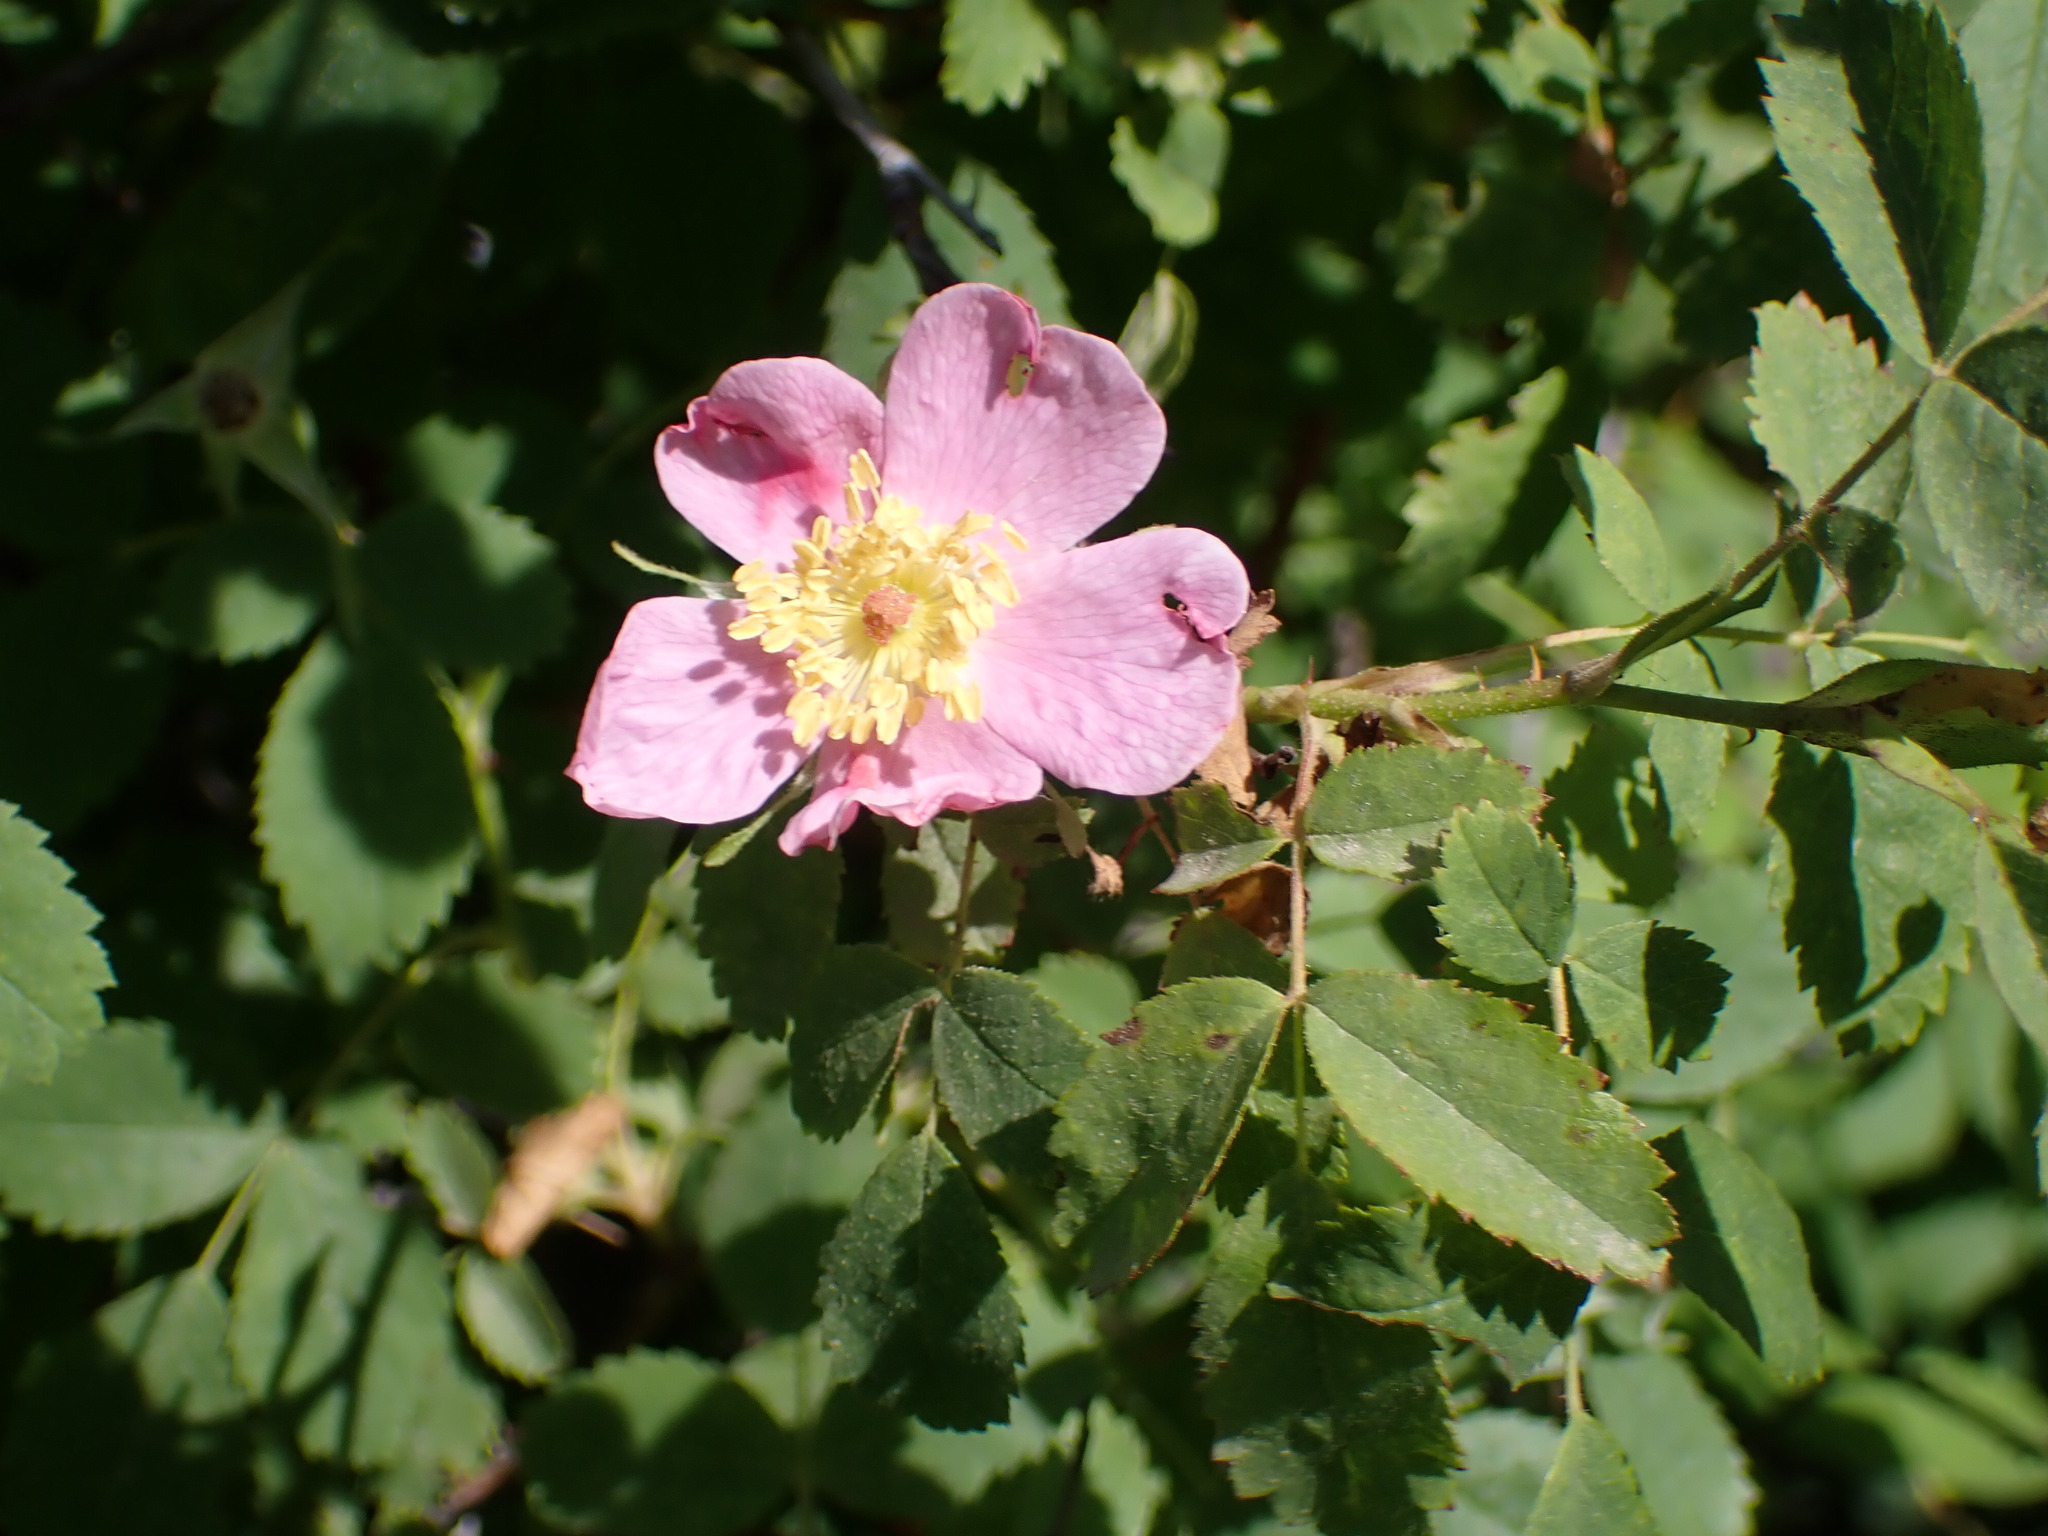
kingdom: Plantae
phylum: Tracheophyta
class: Magnoliopsida
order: Rosales
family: Rosaceae
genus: Rosa
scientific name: Rosa californica
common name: California rose
